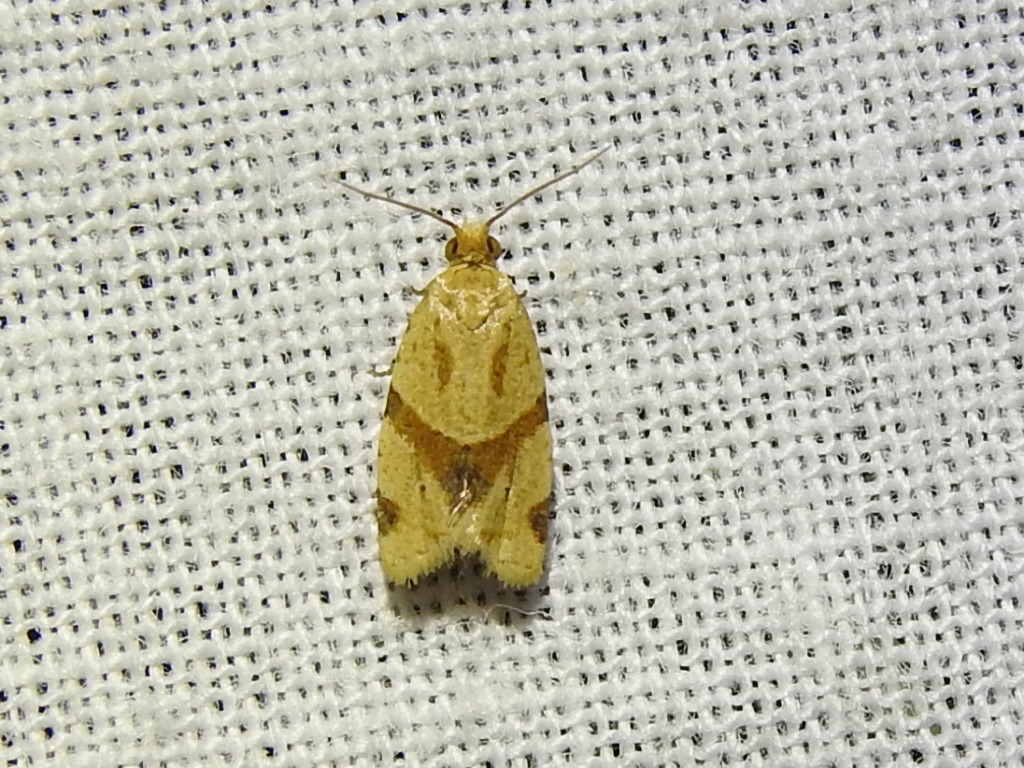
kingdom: Animalia
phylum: Arthropoda
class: Insecta
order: Lepidoptera
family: Tortricidae
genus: Clepsis
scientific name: Clepsis peritana
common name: Garden tortrix
